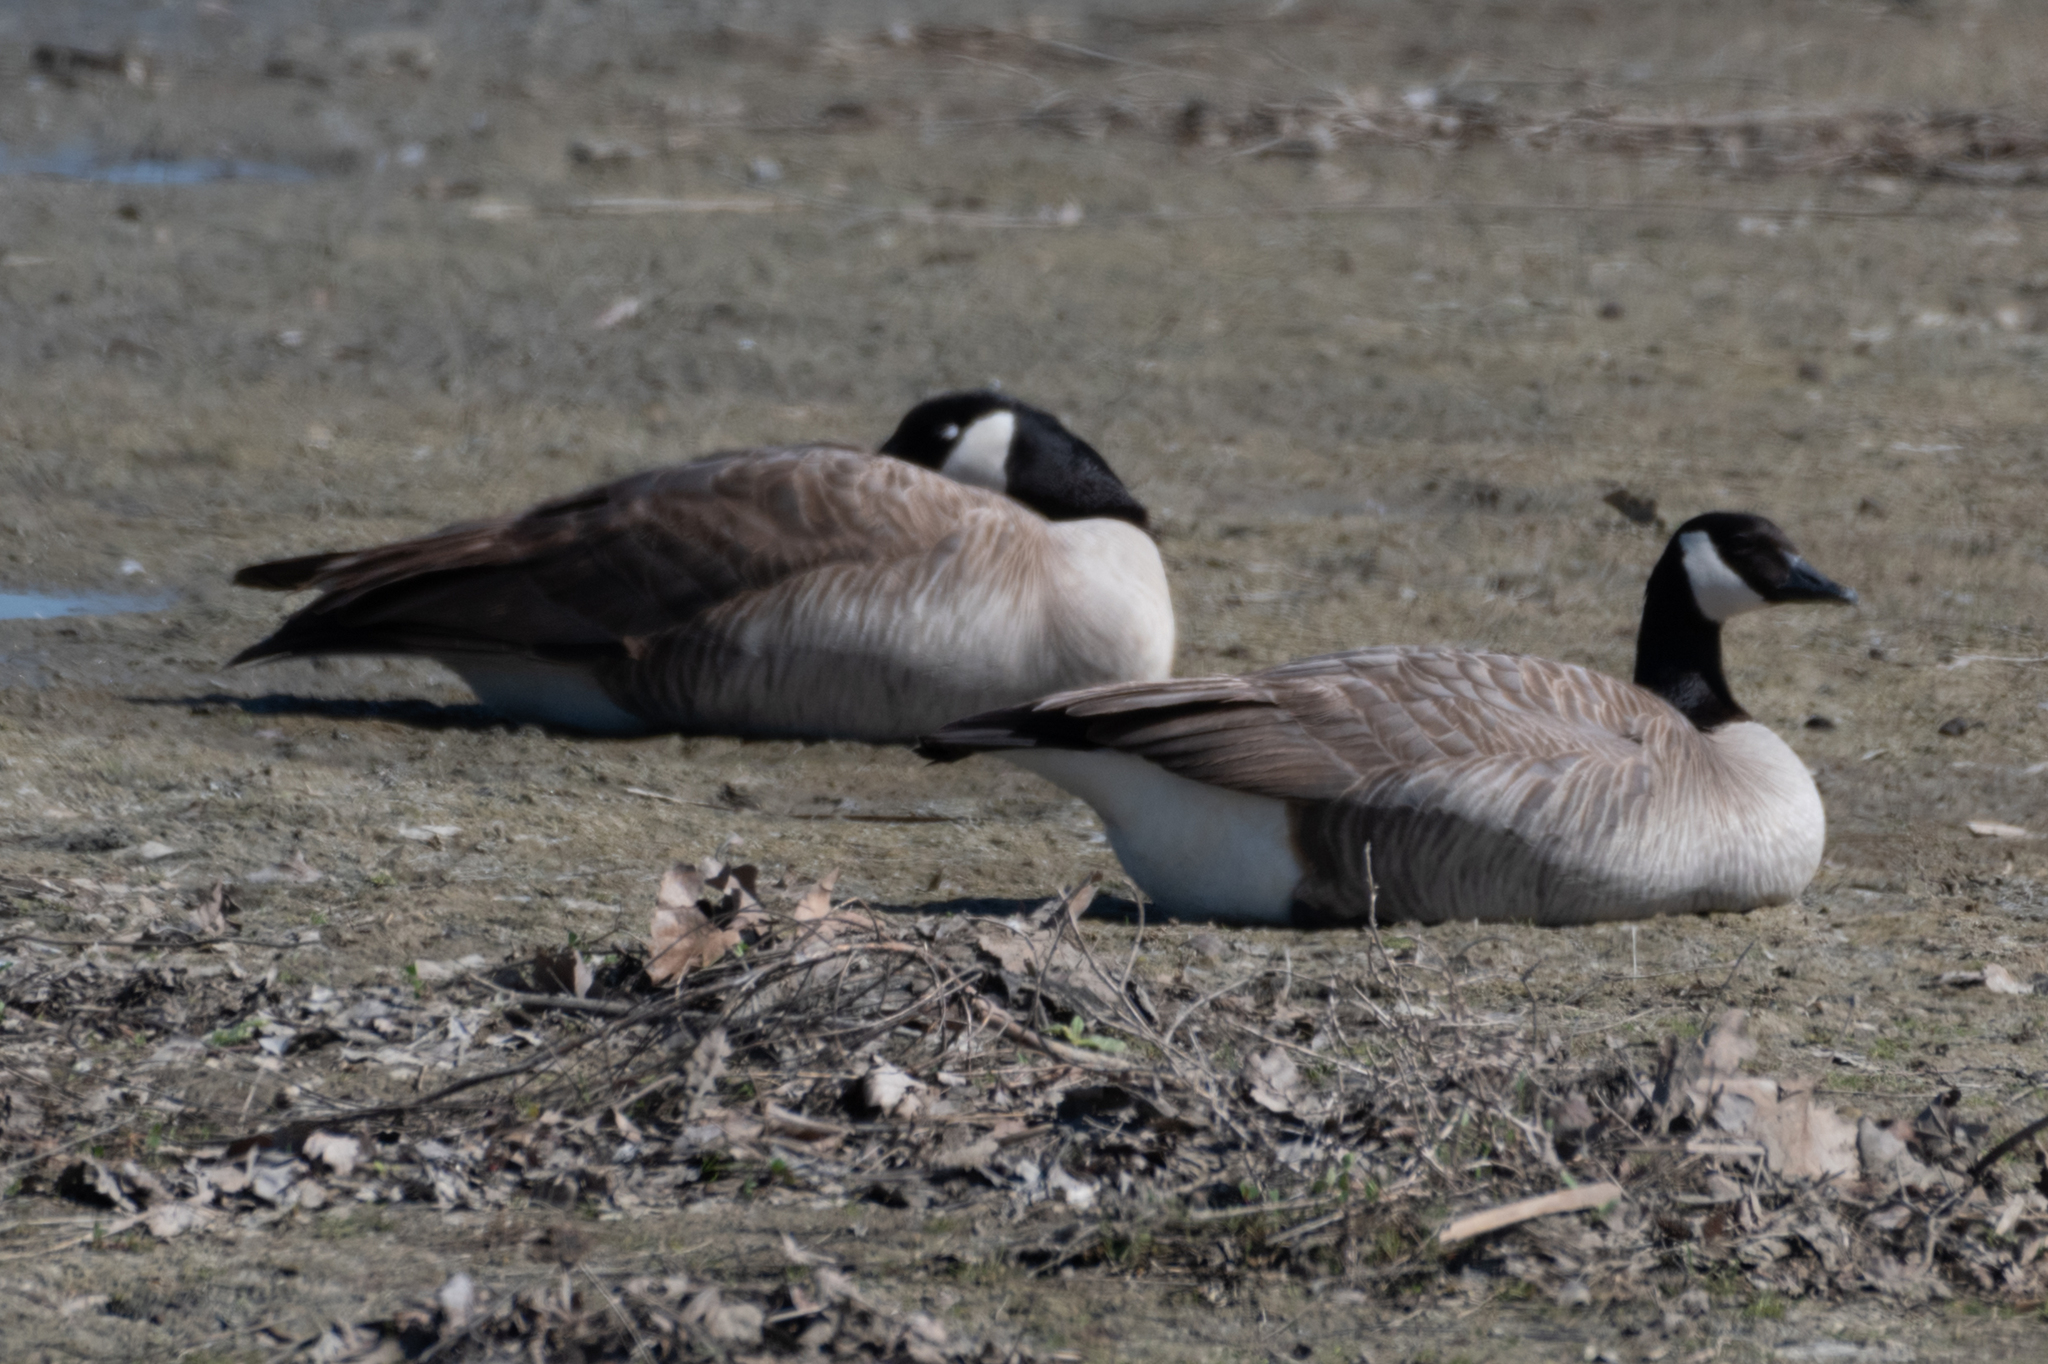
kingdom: Animalia
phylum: Chordata
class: Aves
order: Anseriformes
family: Anatidae
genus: Branta
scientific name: Branta canadensis
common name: Canada goose
